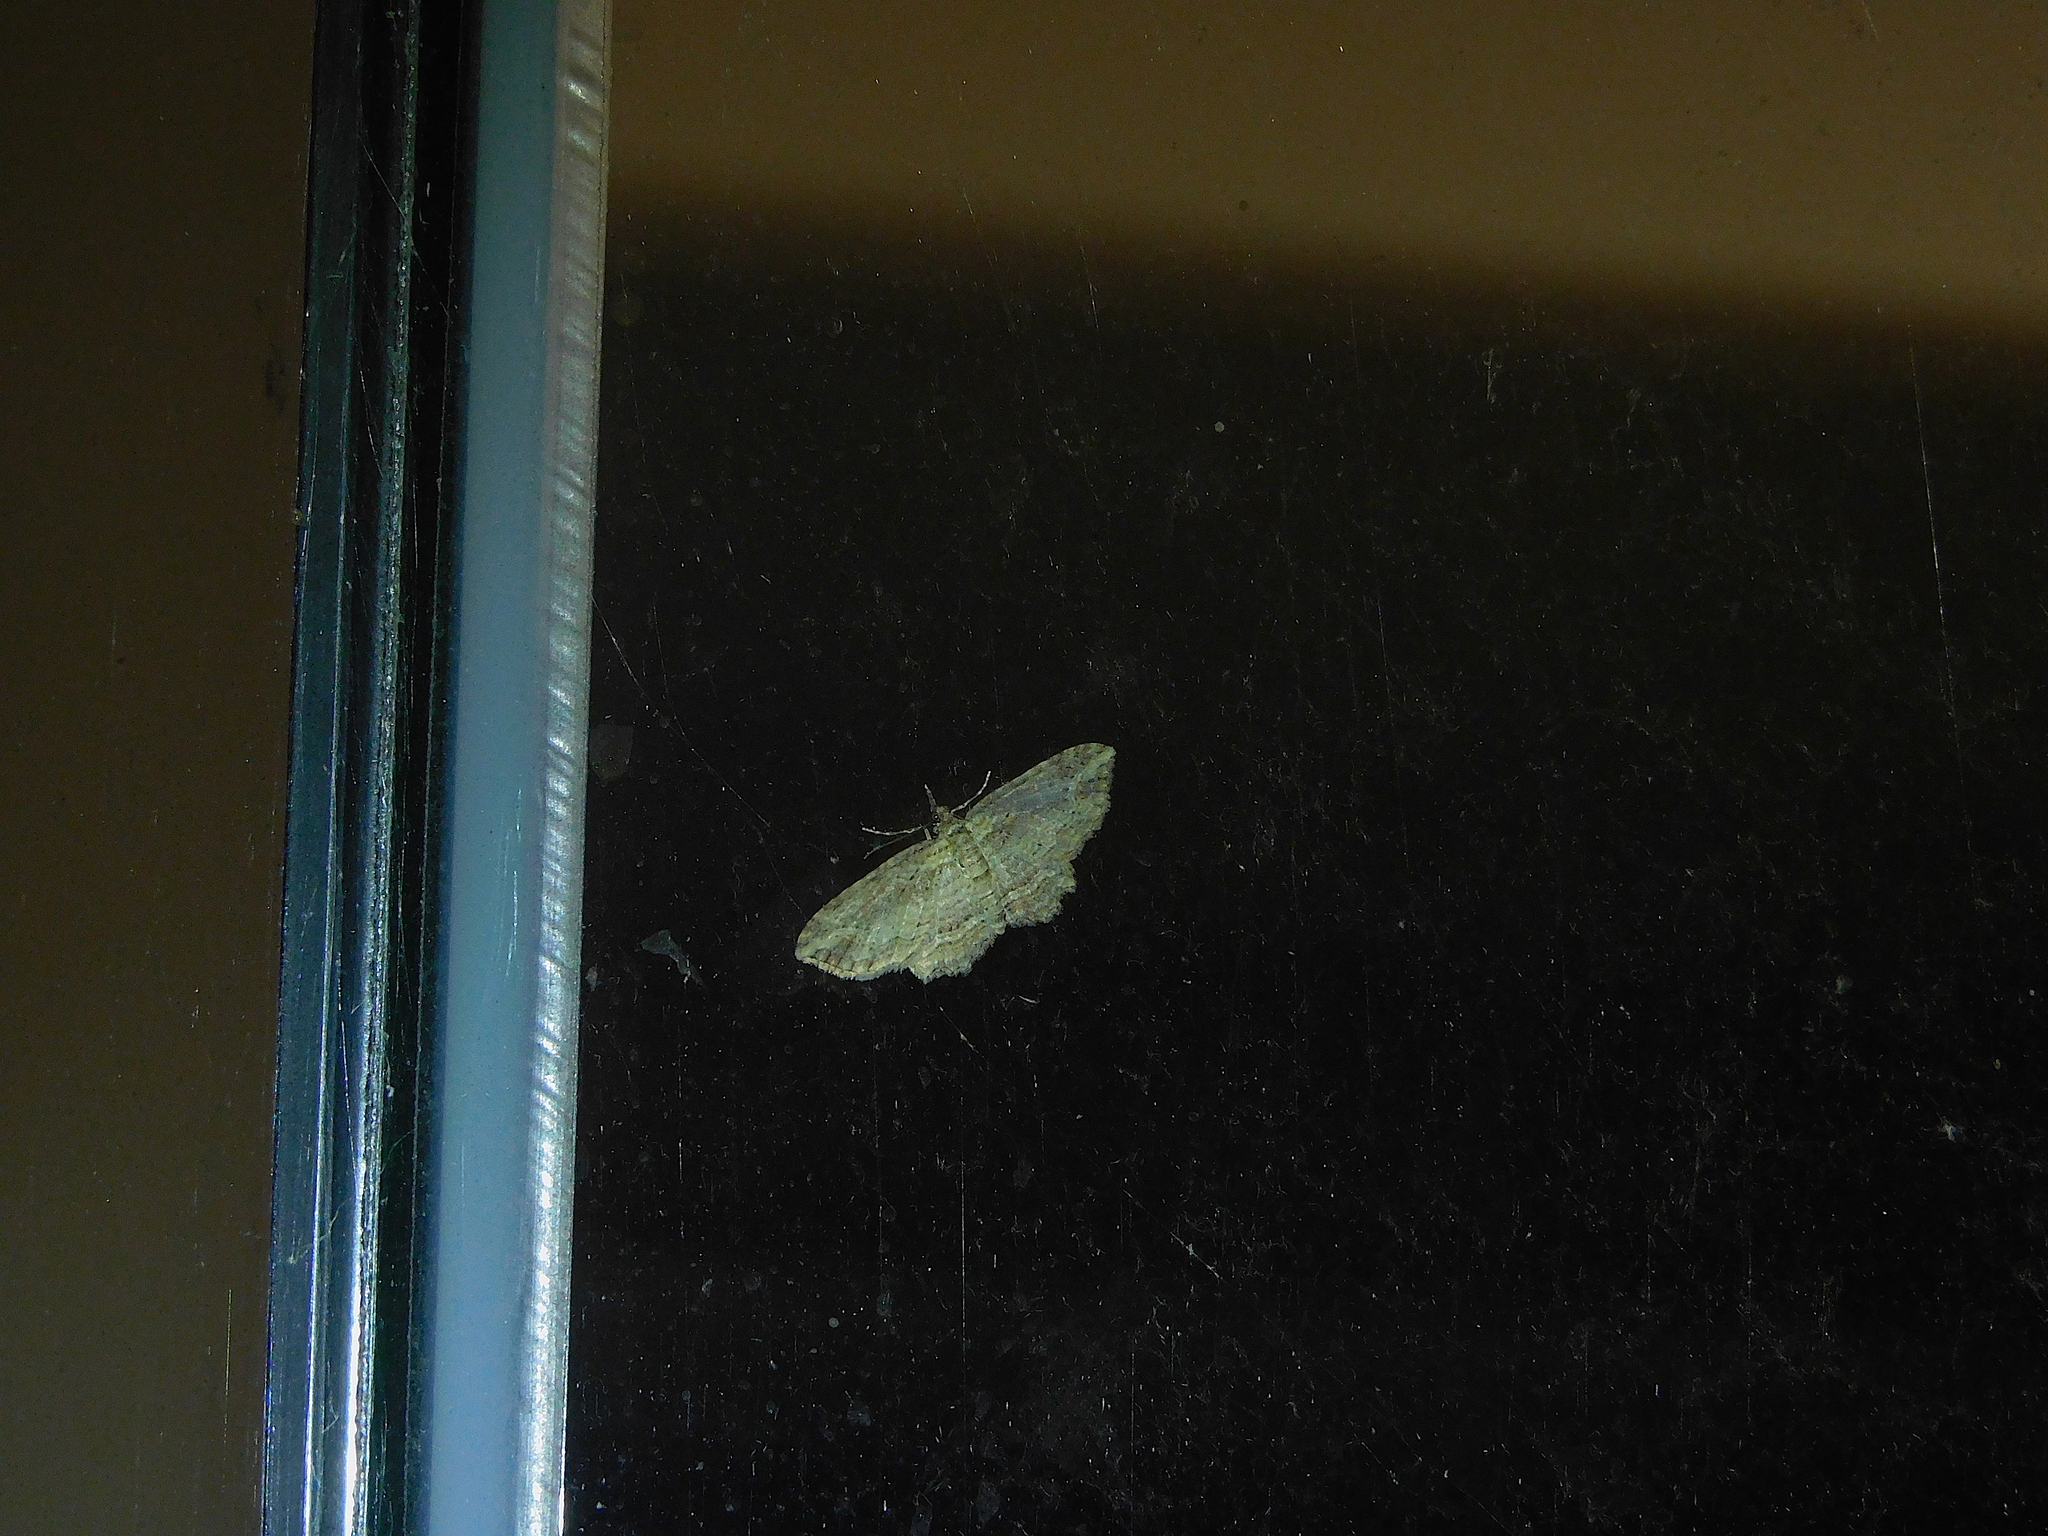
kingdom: Animalia
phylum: Arthropoda
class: Insecta
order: Lepidoptera
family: Geometridae
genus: Chloroclystis
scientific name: Chloroclystis filata
